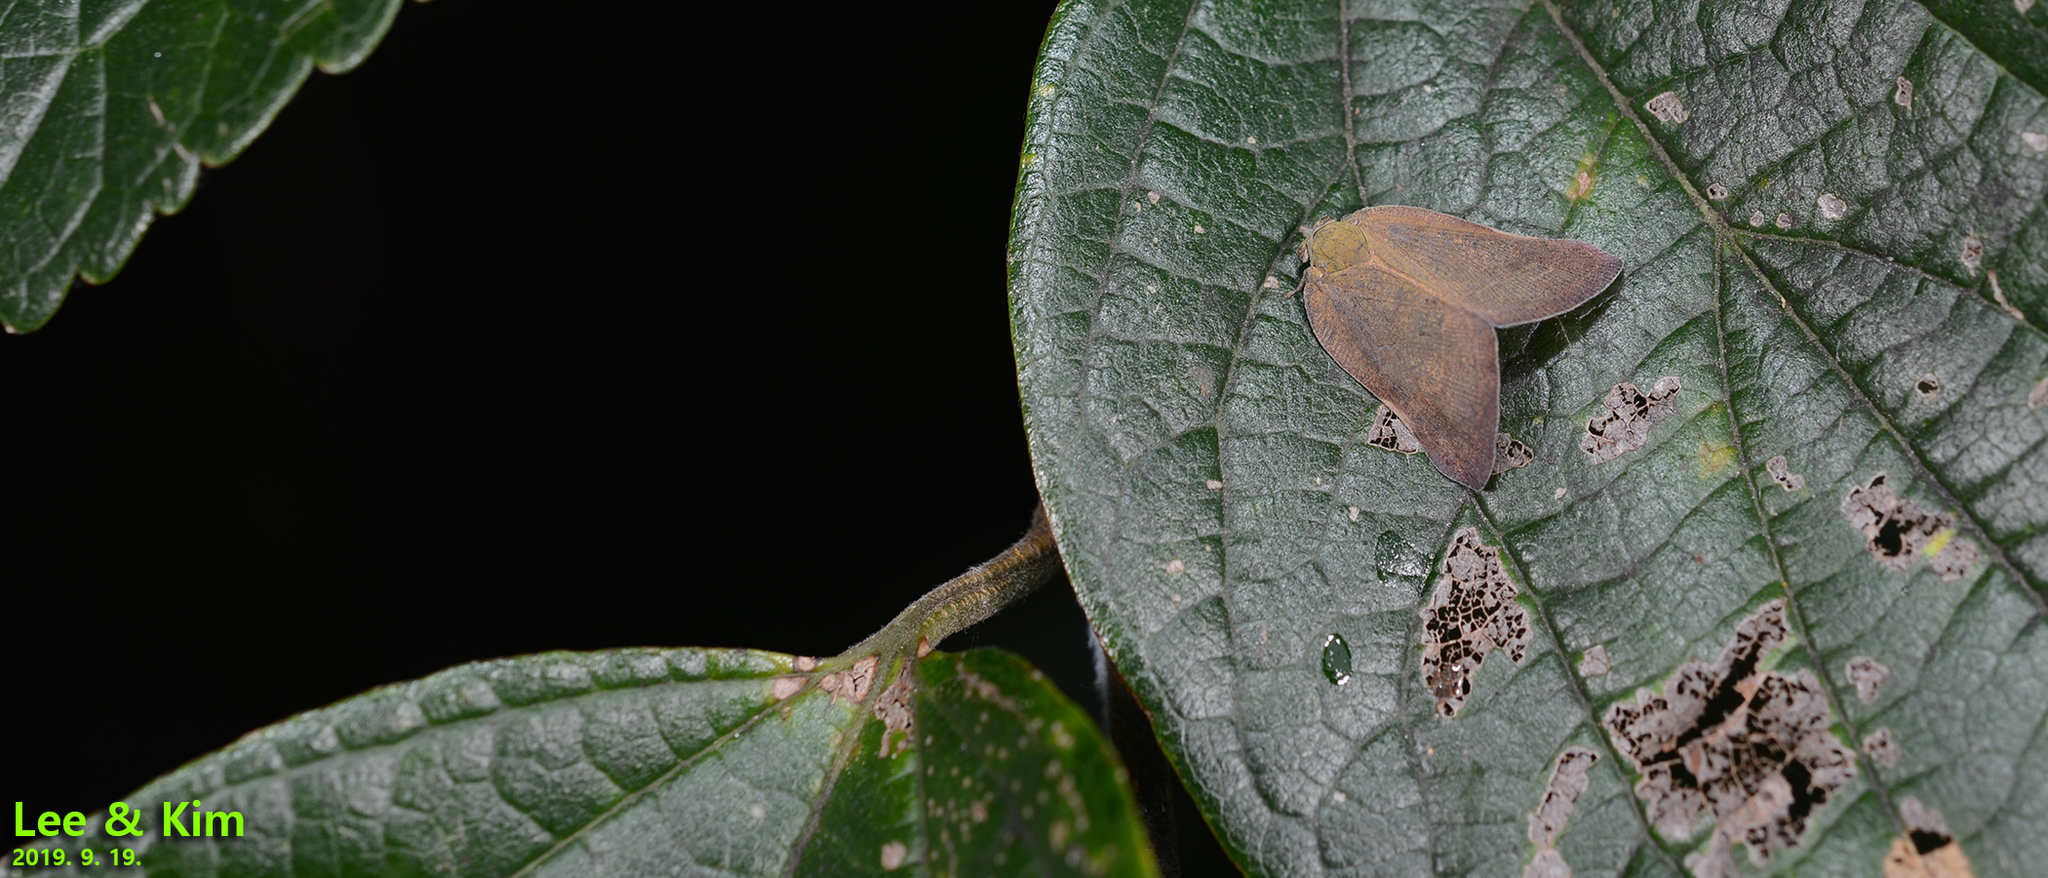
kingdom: Animalia
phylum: Arthropoda
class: Insecta
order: Hemiptera
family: Ricaniidae
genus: Ricanula
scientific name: Ricanula sublimata
